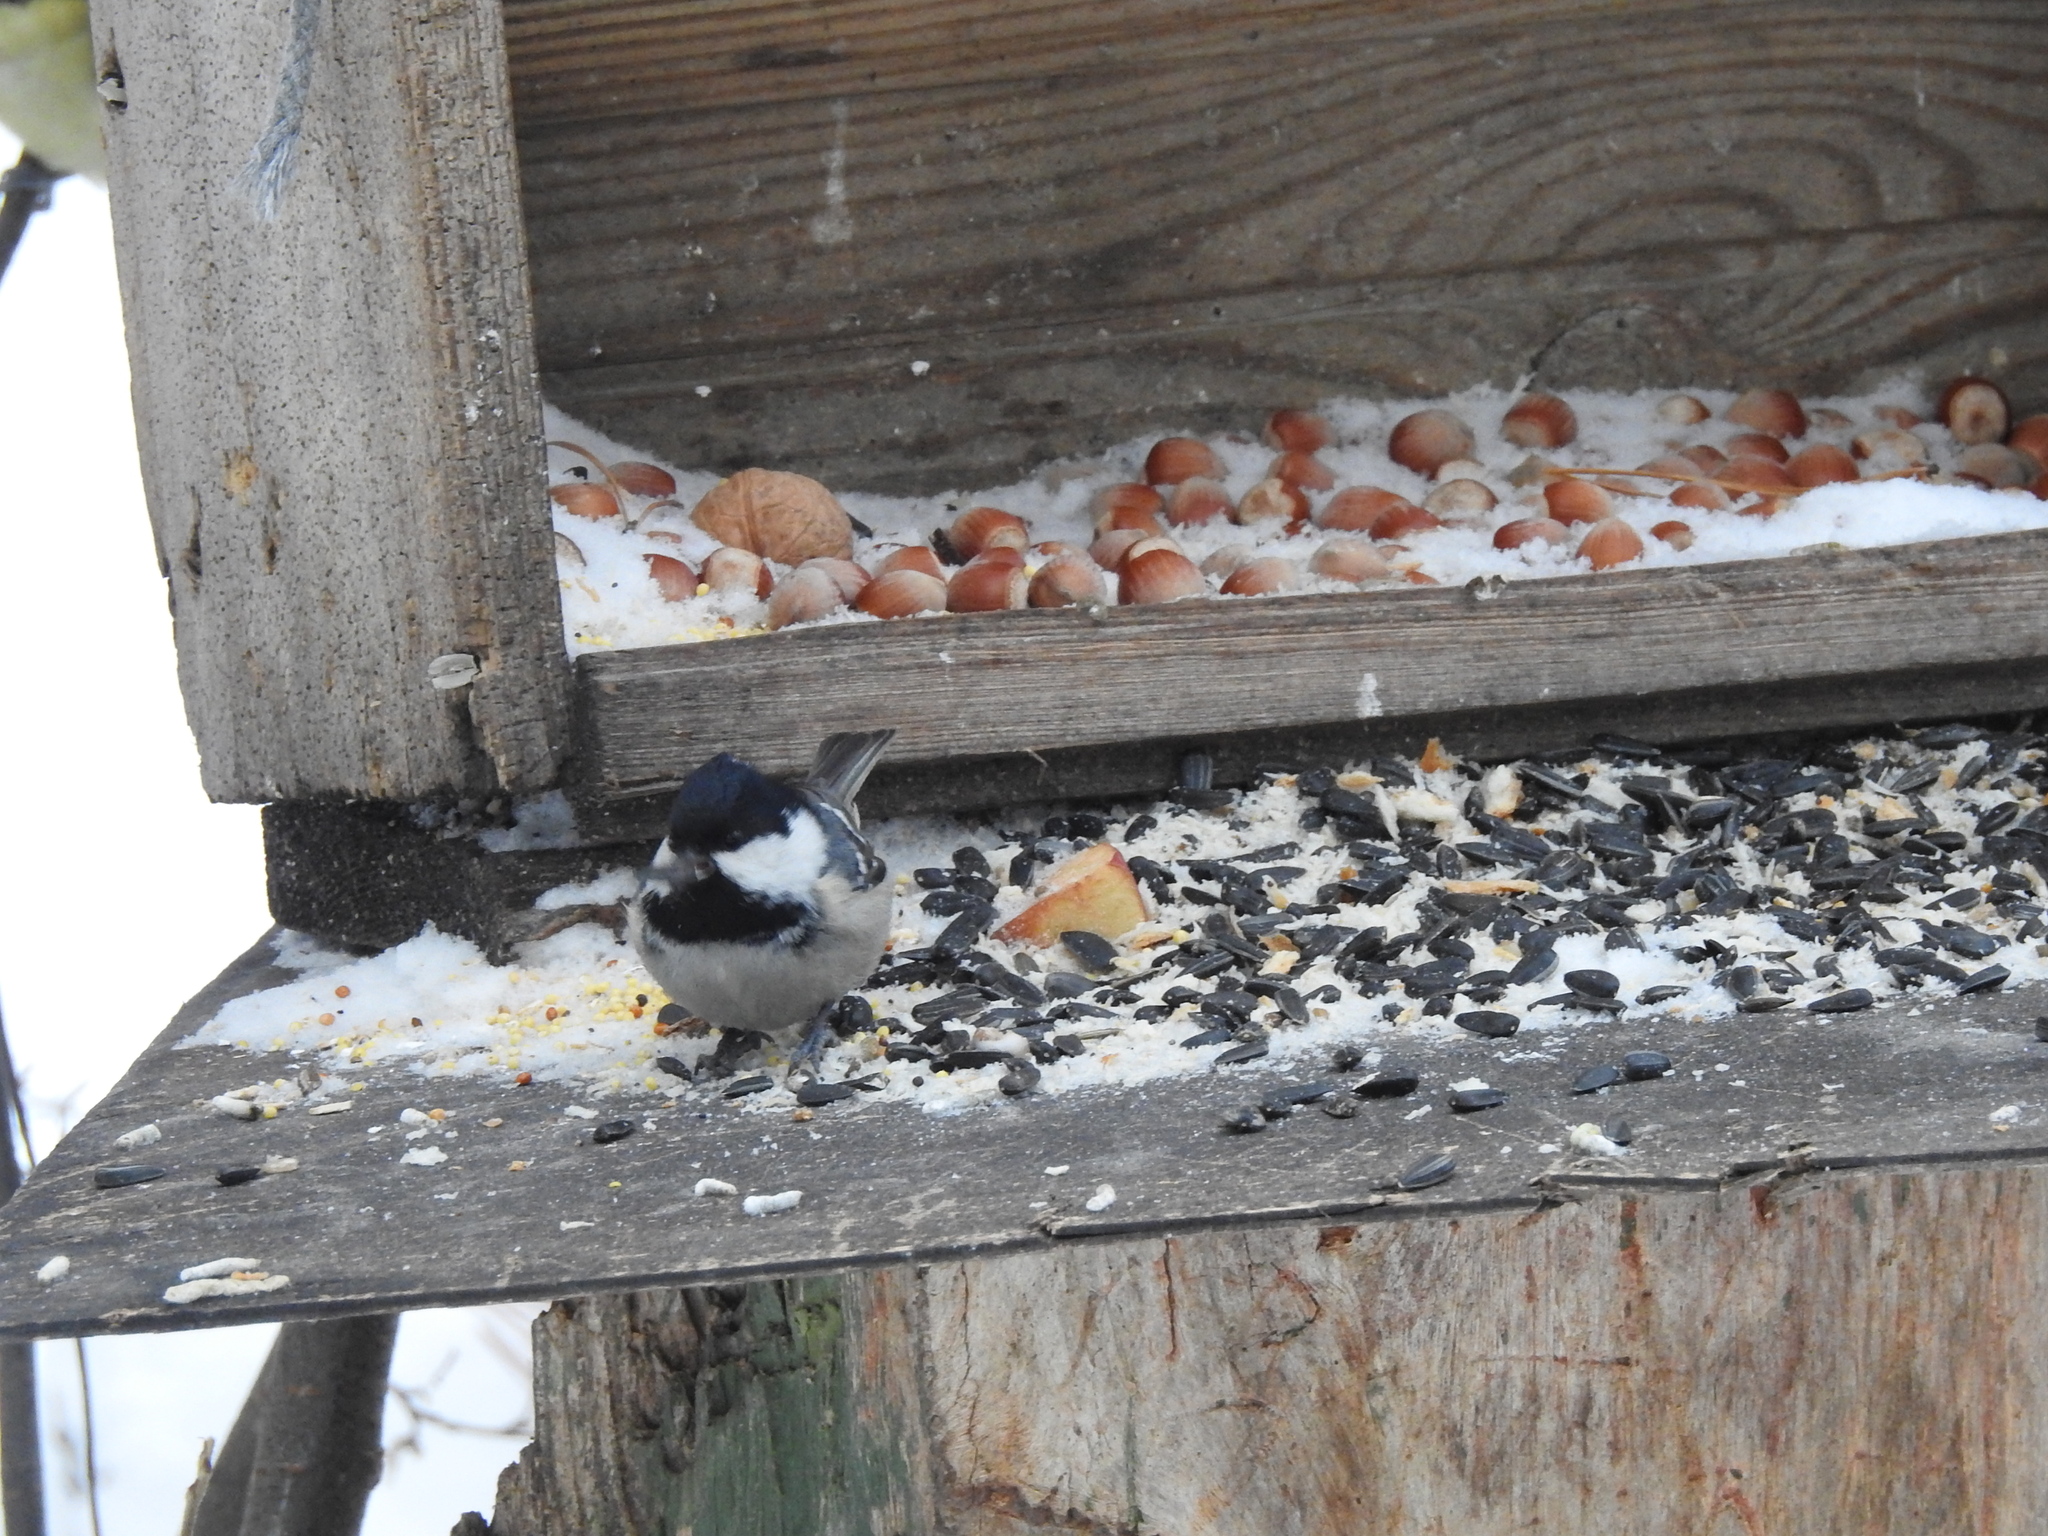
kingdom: Animalia
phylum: Chordata
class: Aves
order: Passeriformes
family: Paridae
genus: Periparus
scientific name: Periparus ater
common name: Coal tit
